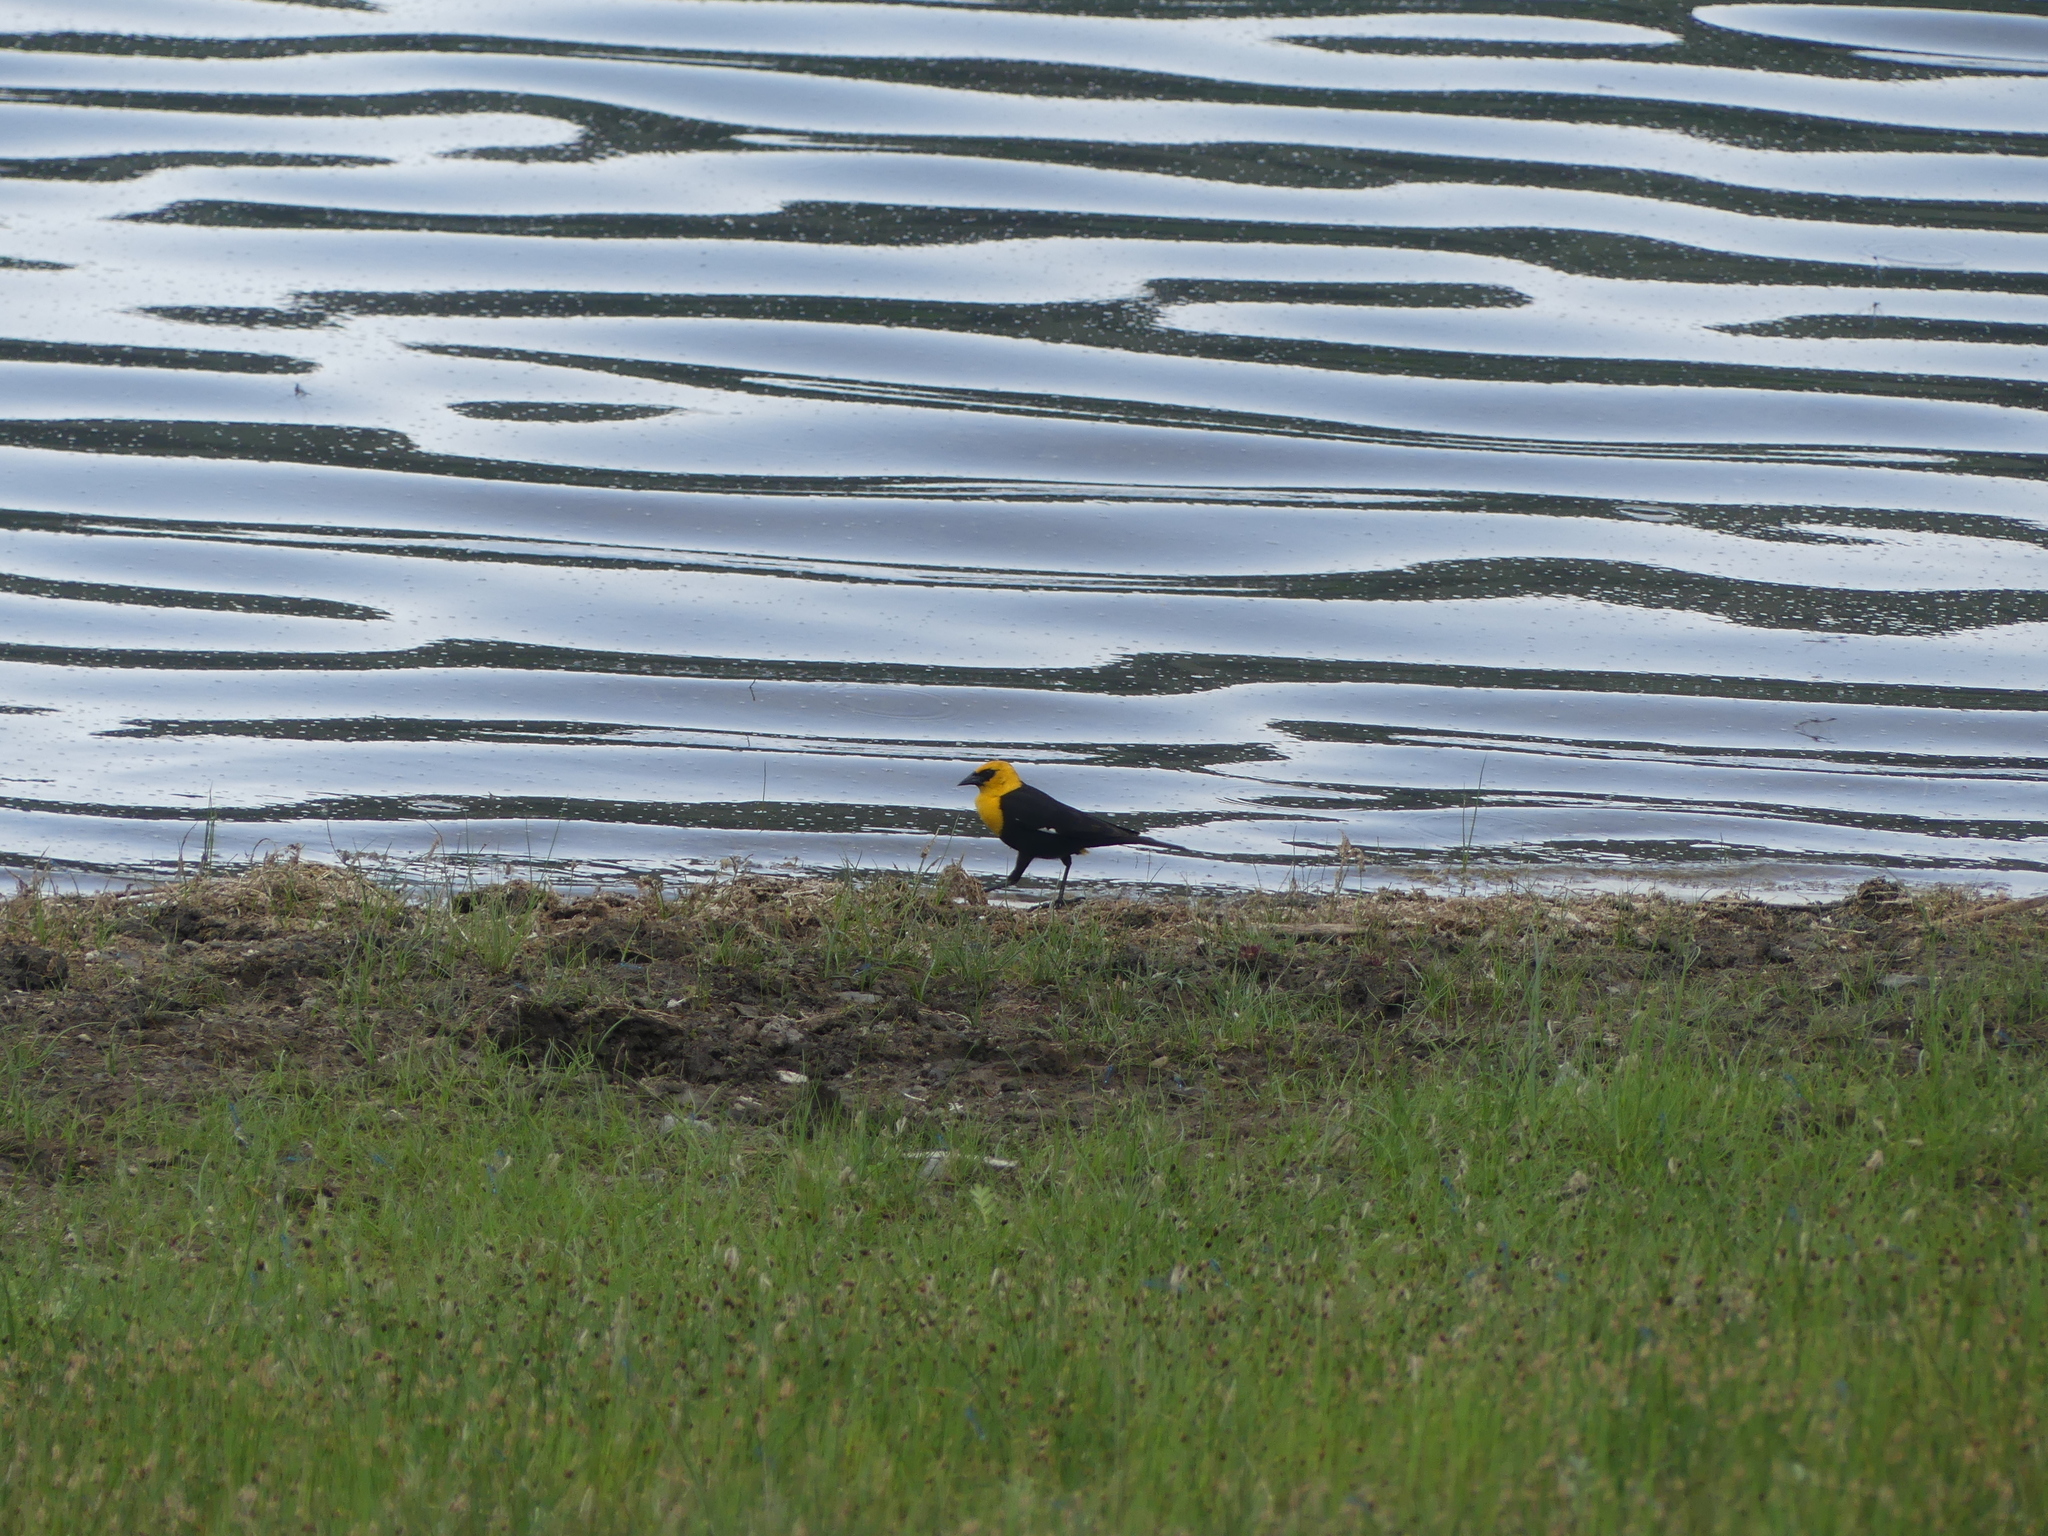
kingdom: Animalia
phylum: Chordata
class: Aves
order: Passeriformes
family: Icteridae
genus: Xanthocephalus
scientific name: Xanthocephalus xanthocephalus
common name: Yellow-headed blackbird
